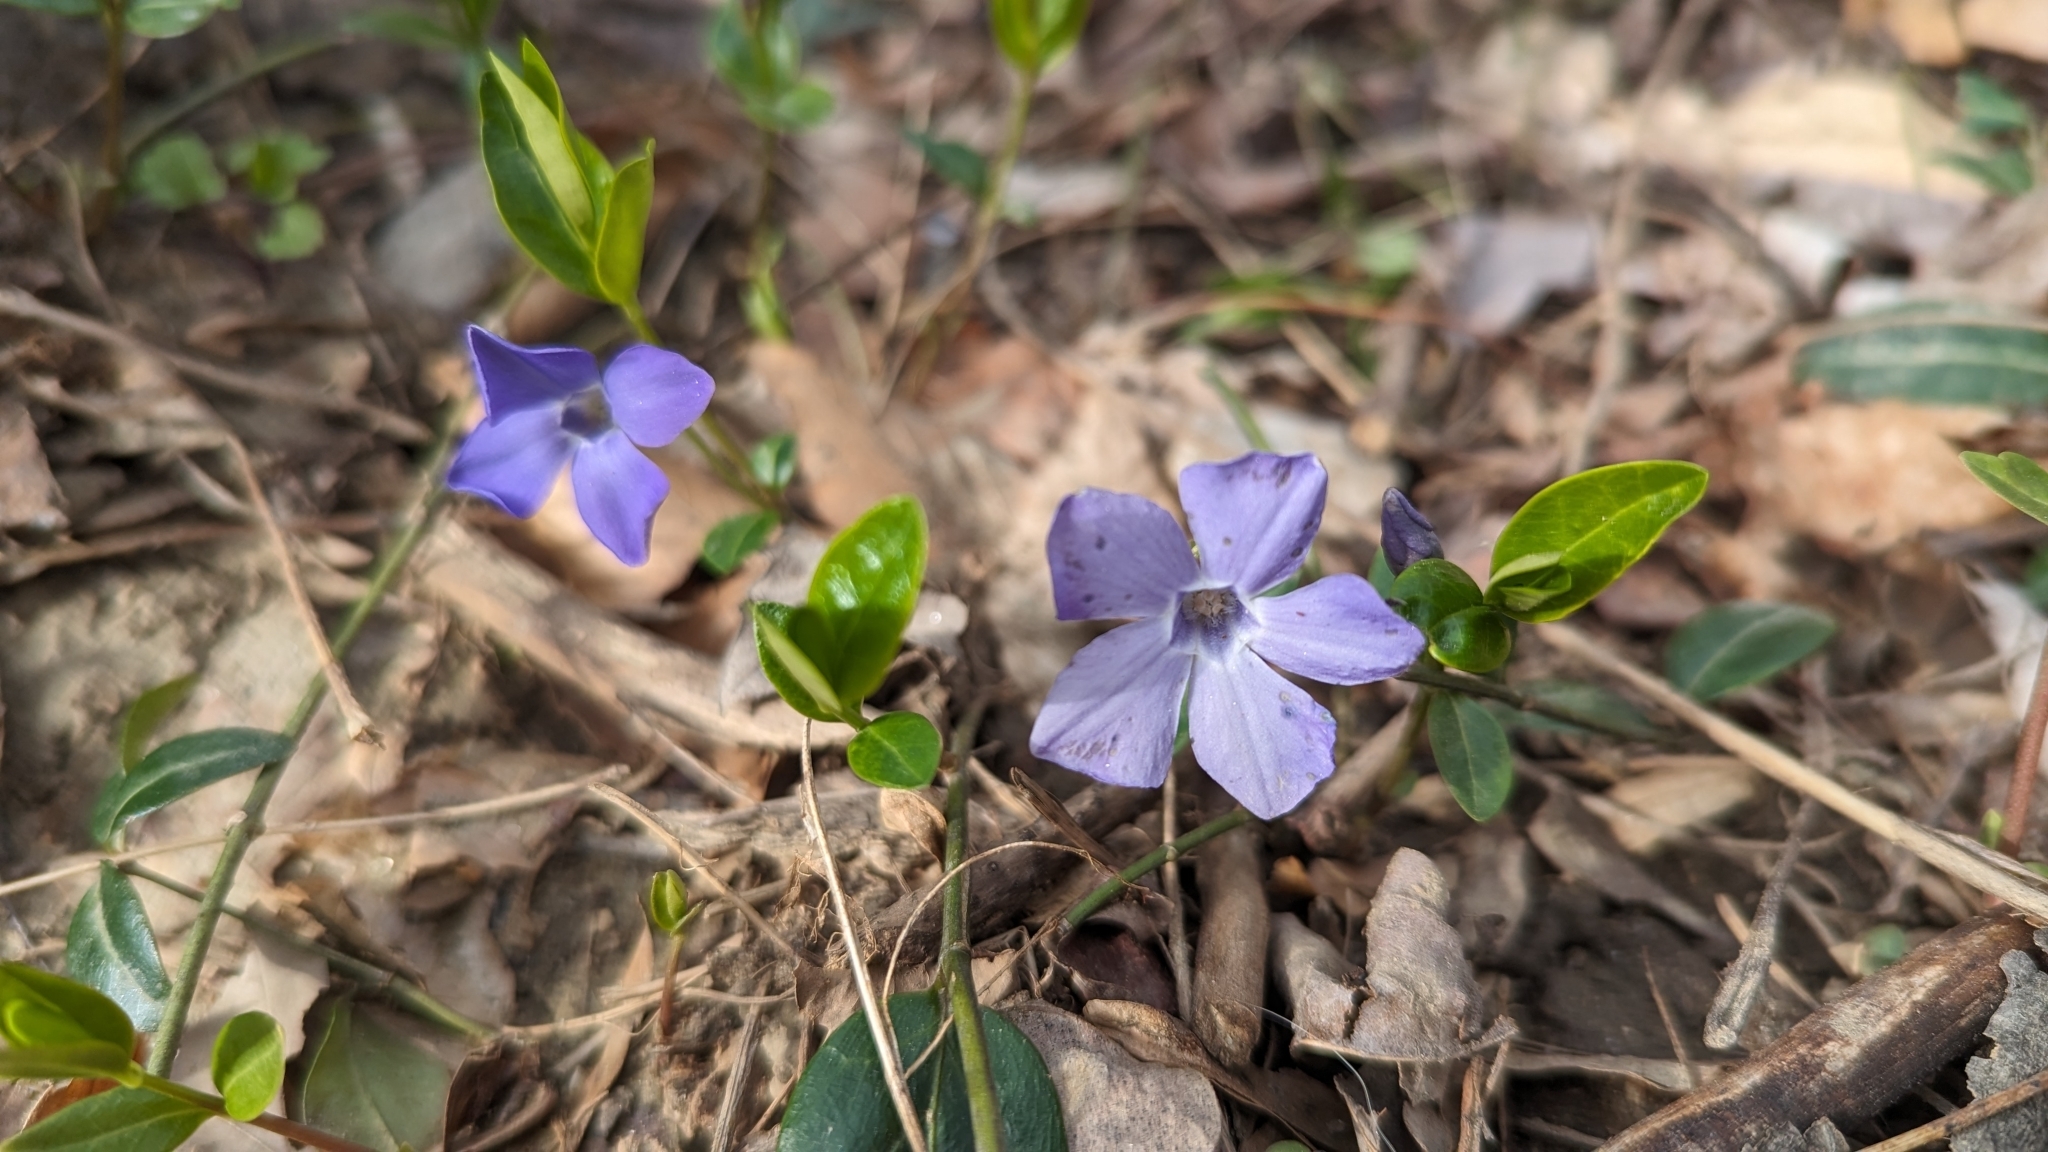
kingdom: Plantae
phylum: Tracheophyta
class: Magnoliopsida
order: Gentianales
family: Apocynaceae
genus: Vinca
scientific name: Vinca minor
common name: Lesser periwinkle
